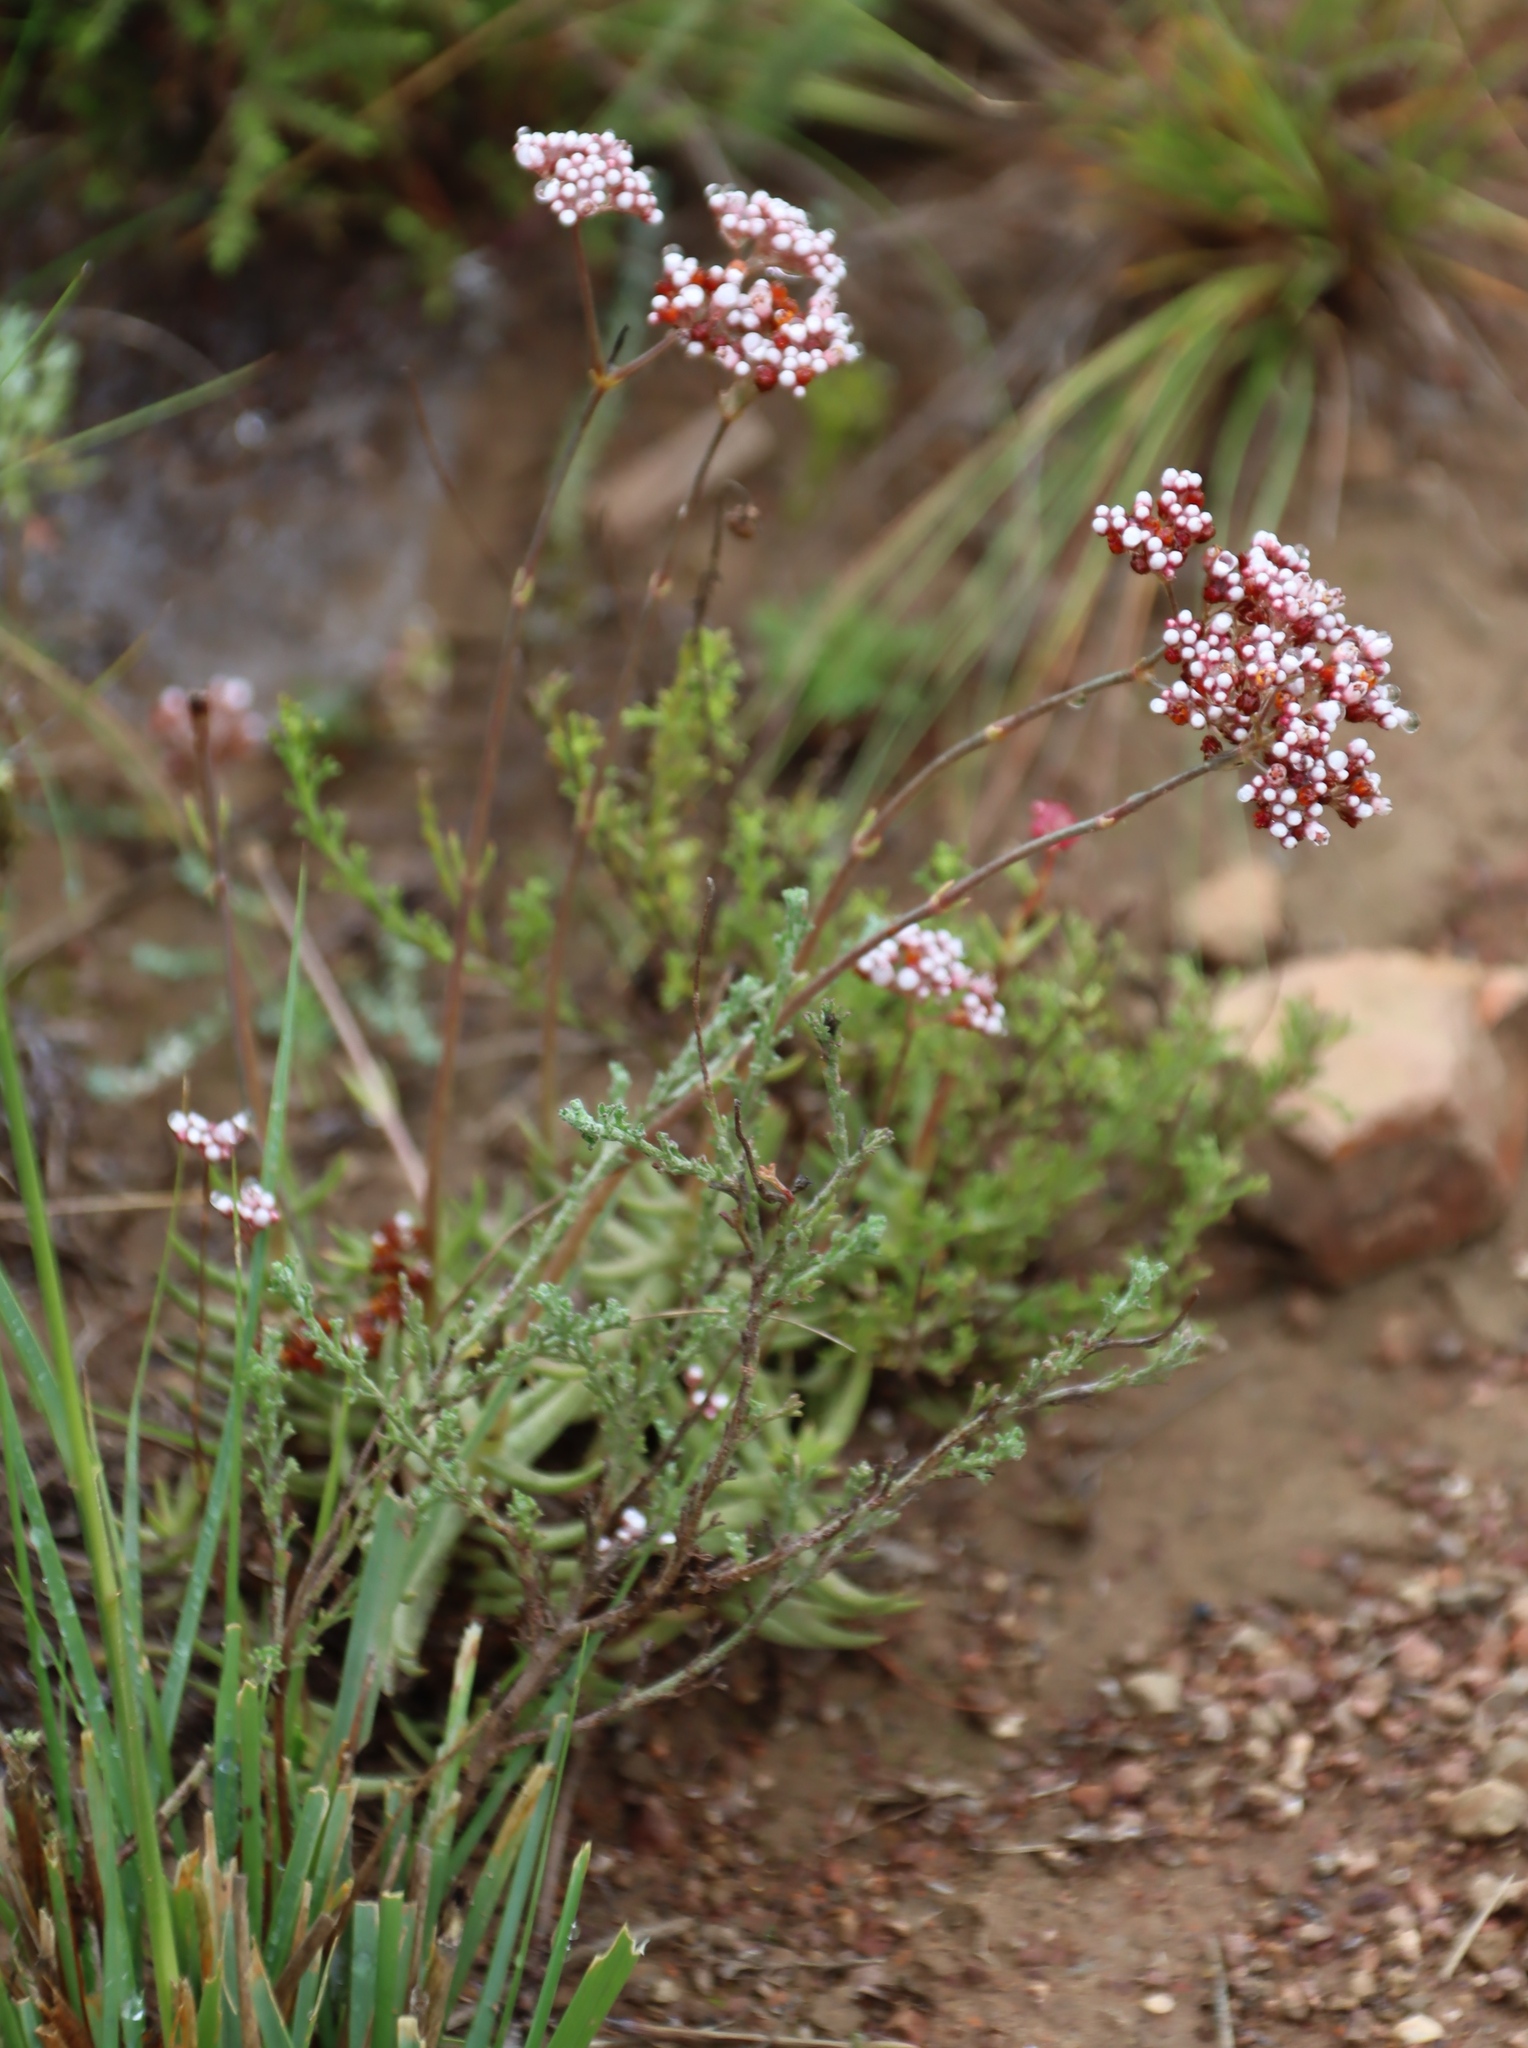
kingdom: Plantae
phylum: Tracheophyta
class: Magnoliopsida
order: Saxifragales
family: Crassulaceae
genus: Crassula
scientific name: Crassula tetragona
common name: Pygmyweed
